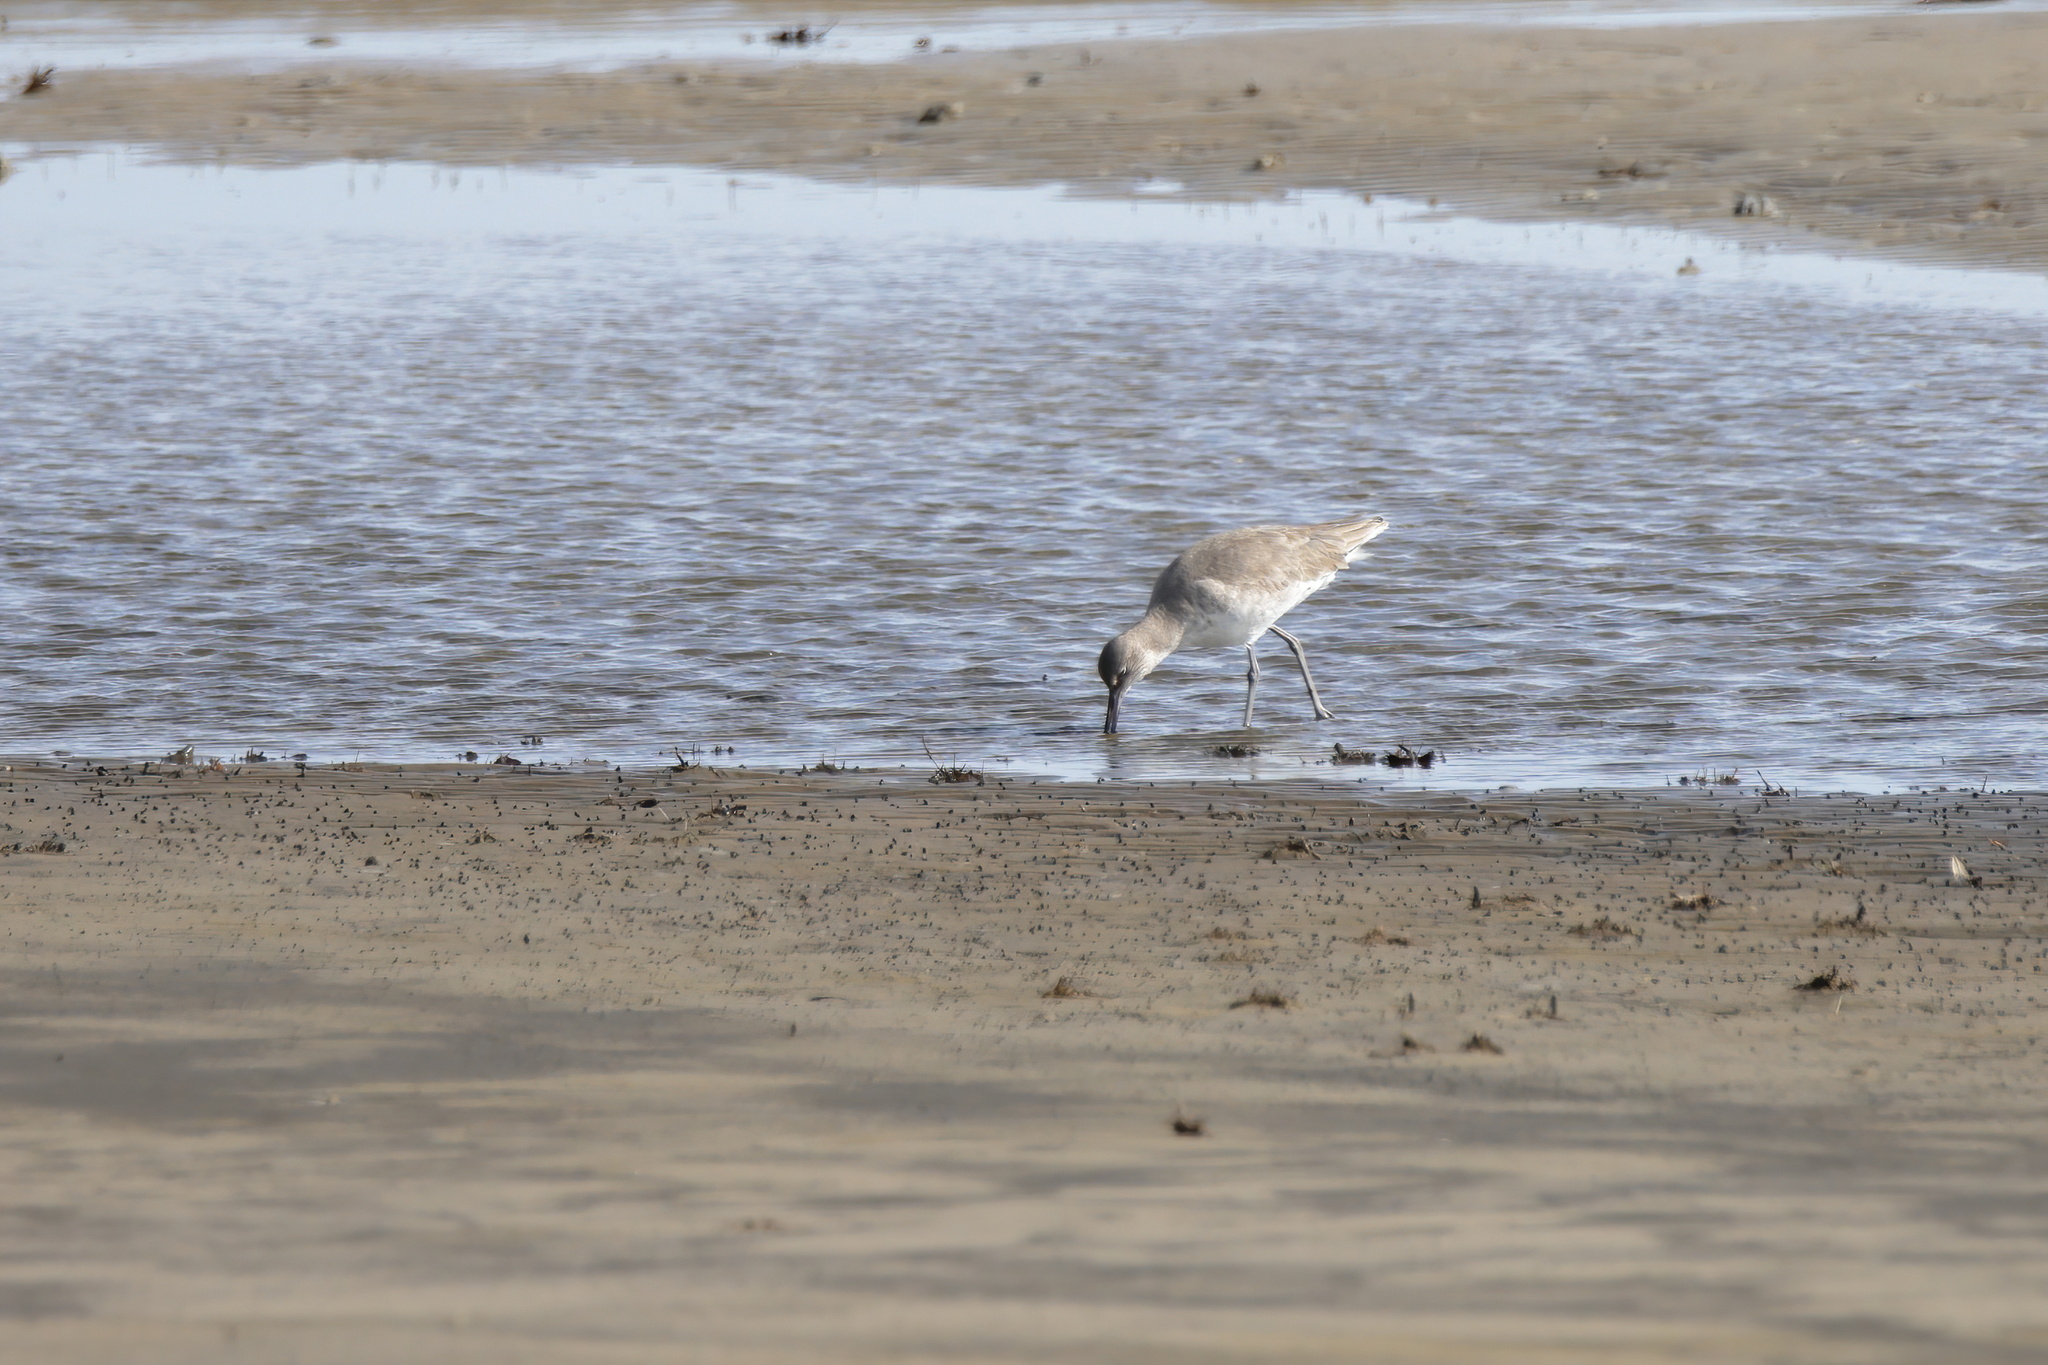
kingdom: Animalia
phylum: Chordata
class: Aves
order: Charadriiformes
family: Scolopacidae
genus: Tringa
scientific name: Tringa semipalmata
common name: Willet
